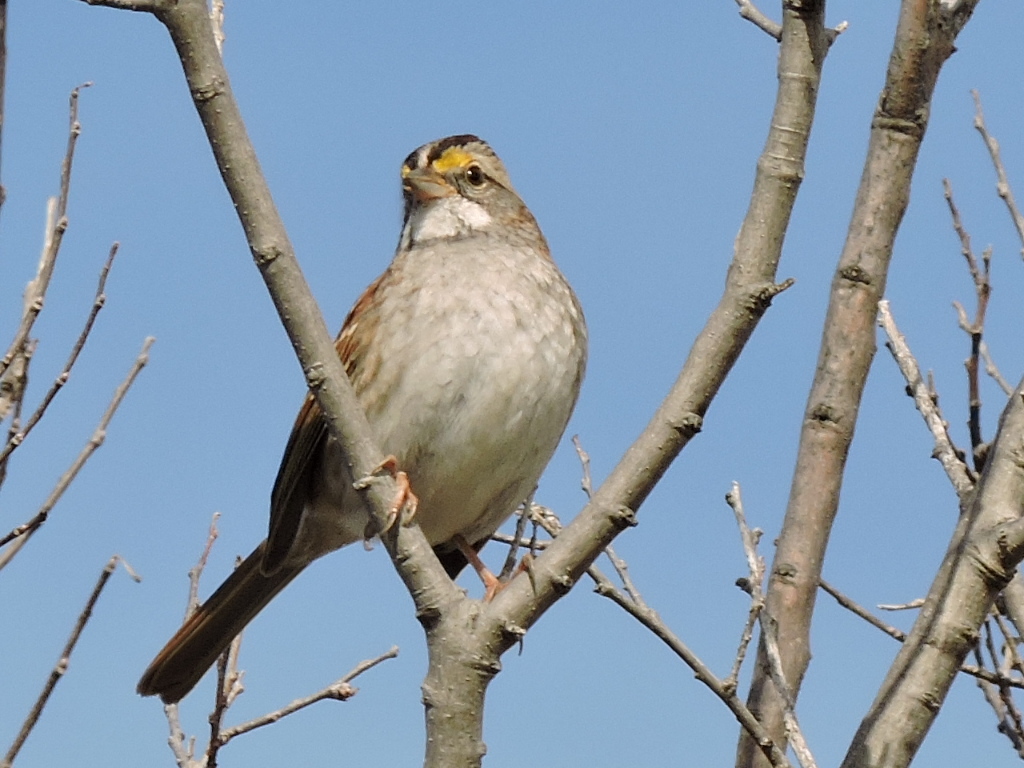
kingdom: Animalia
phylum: Chordata
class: Aves
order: Passeriformes
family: Passerellidae
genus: Zonotrichia
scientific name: Zonotrichia albicollis
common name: White-throated sparrow
